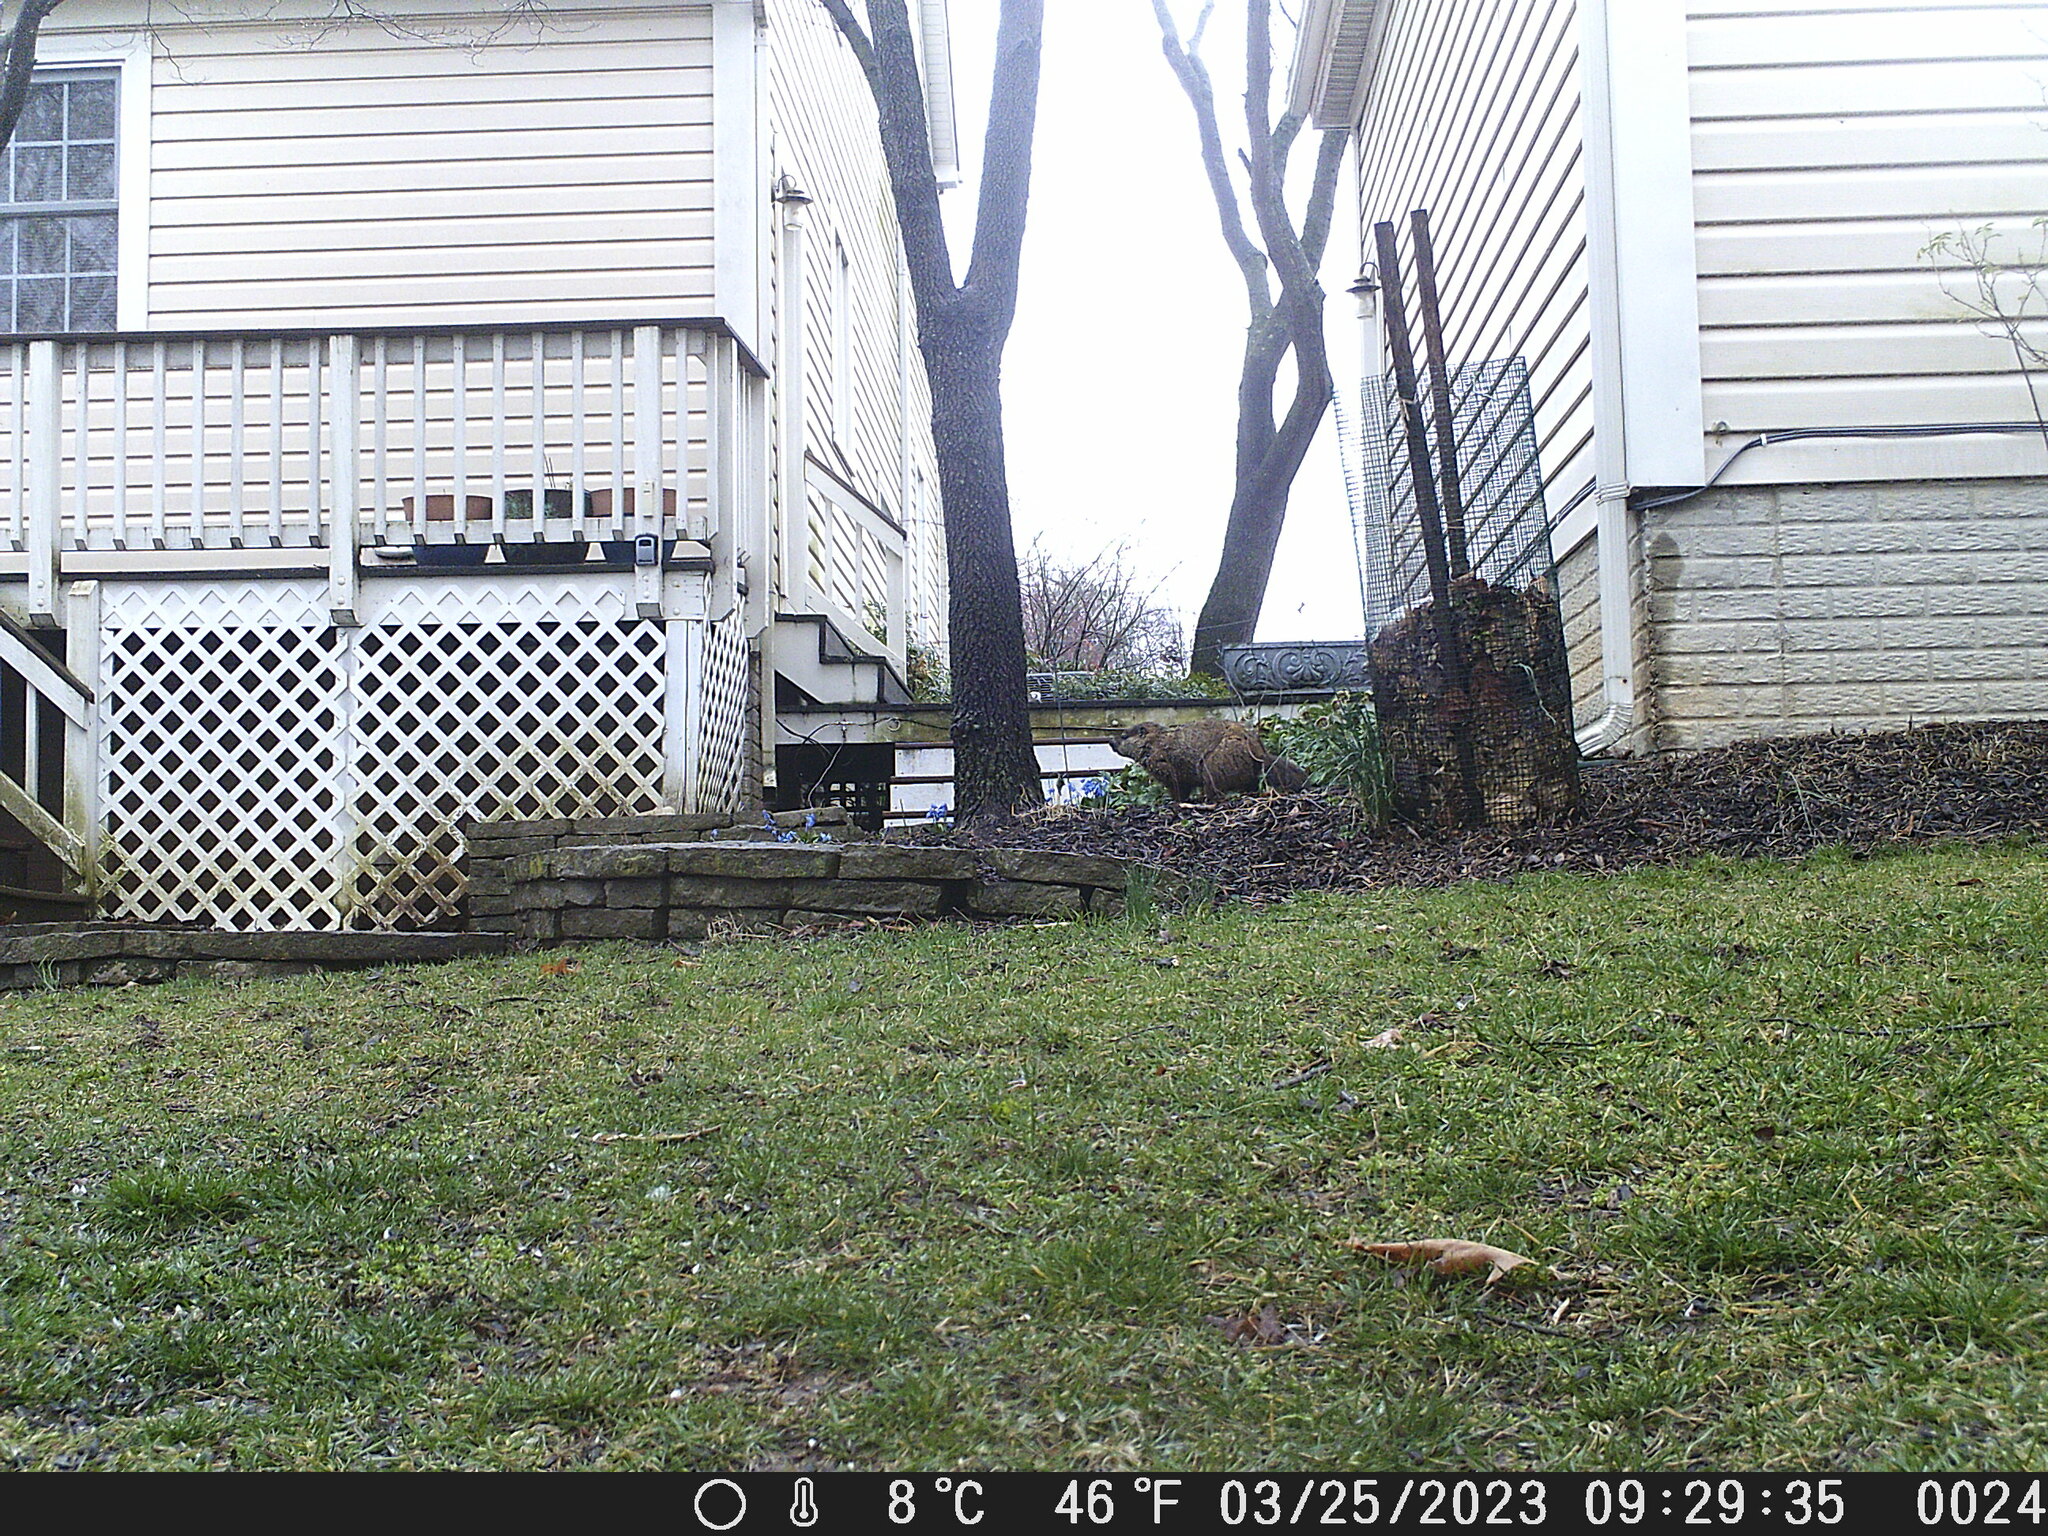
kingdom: Animalia
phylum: Chordata
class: Mammalia
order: Rodentia
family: Sciuridae
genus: Marmota
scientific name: Marmota monax
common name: Groundhog
